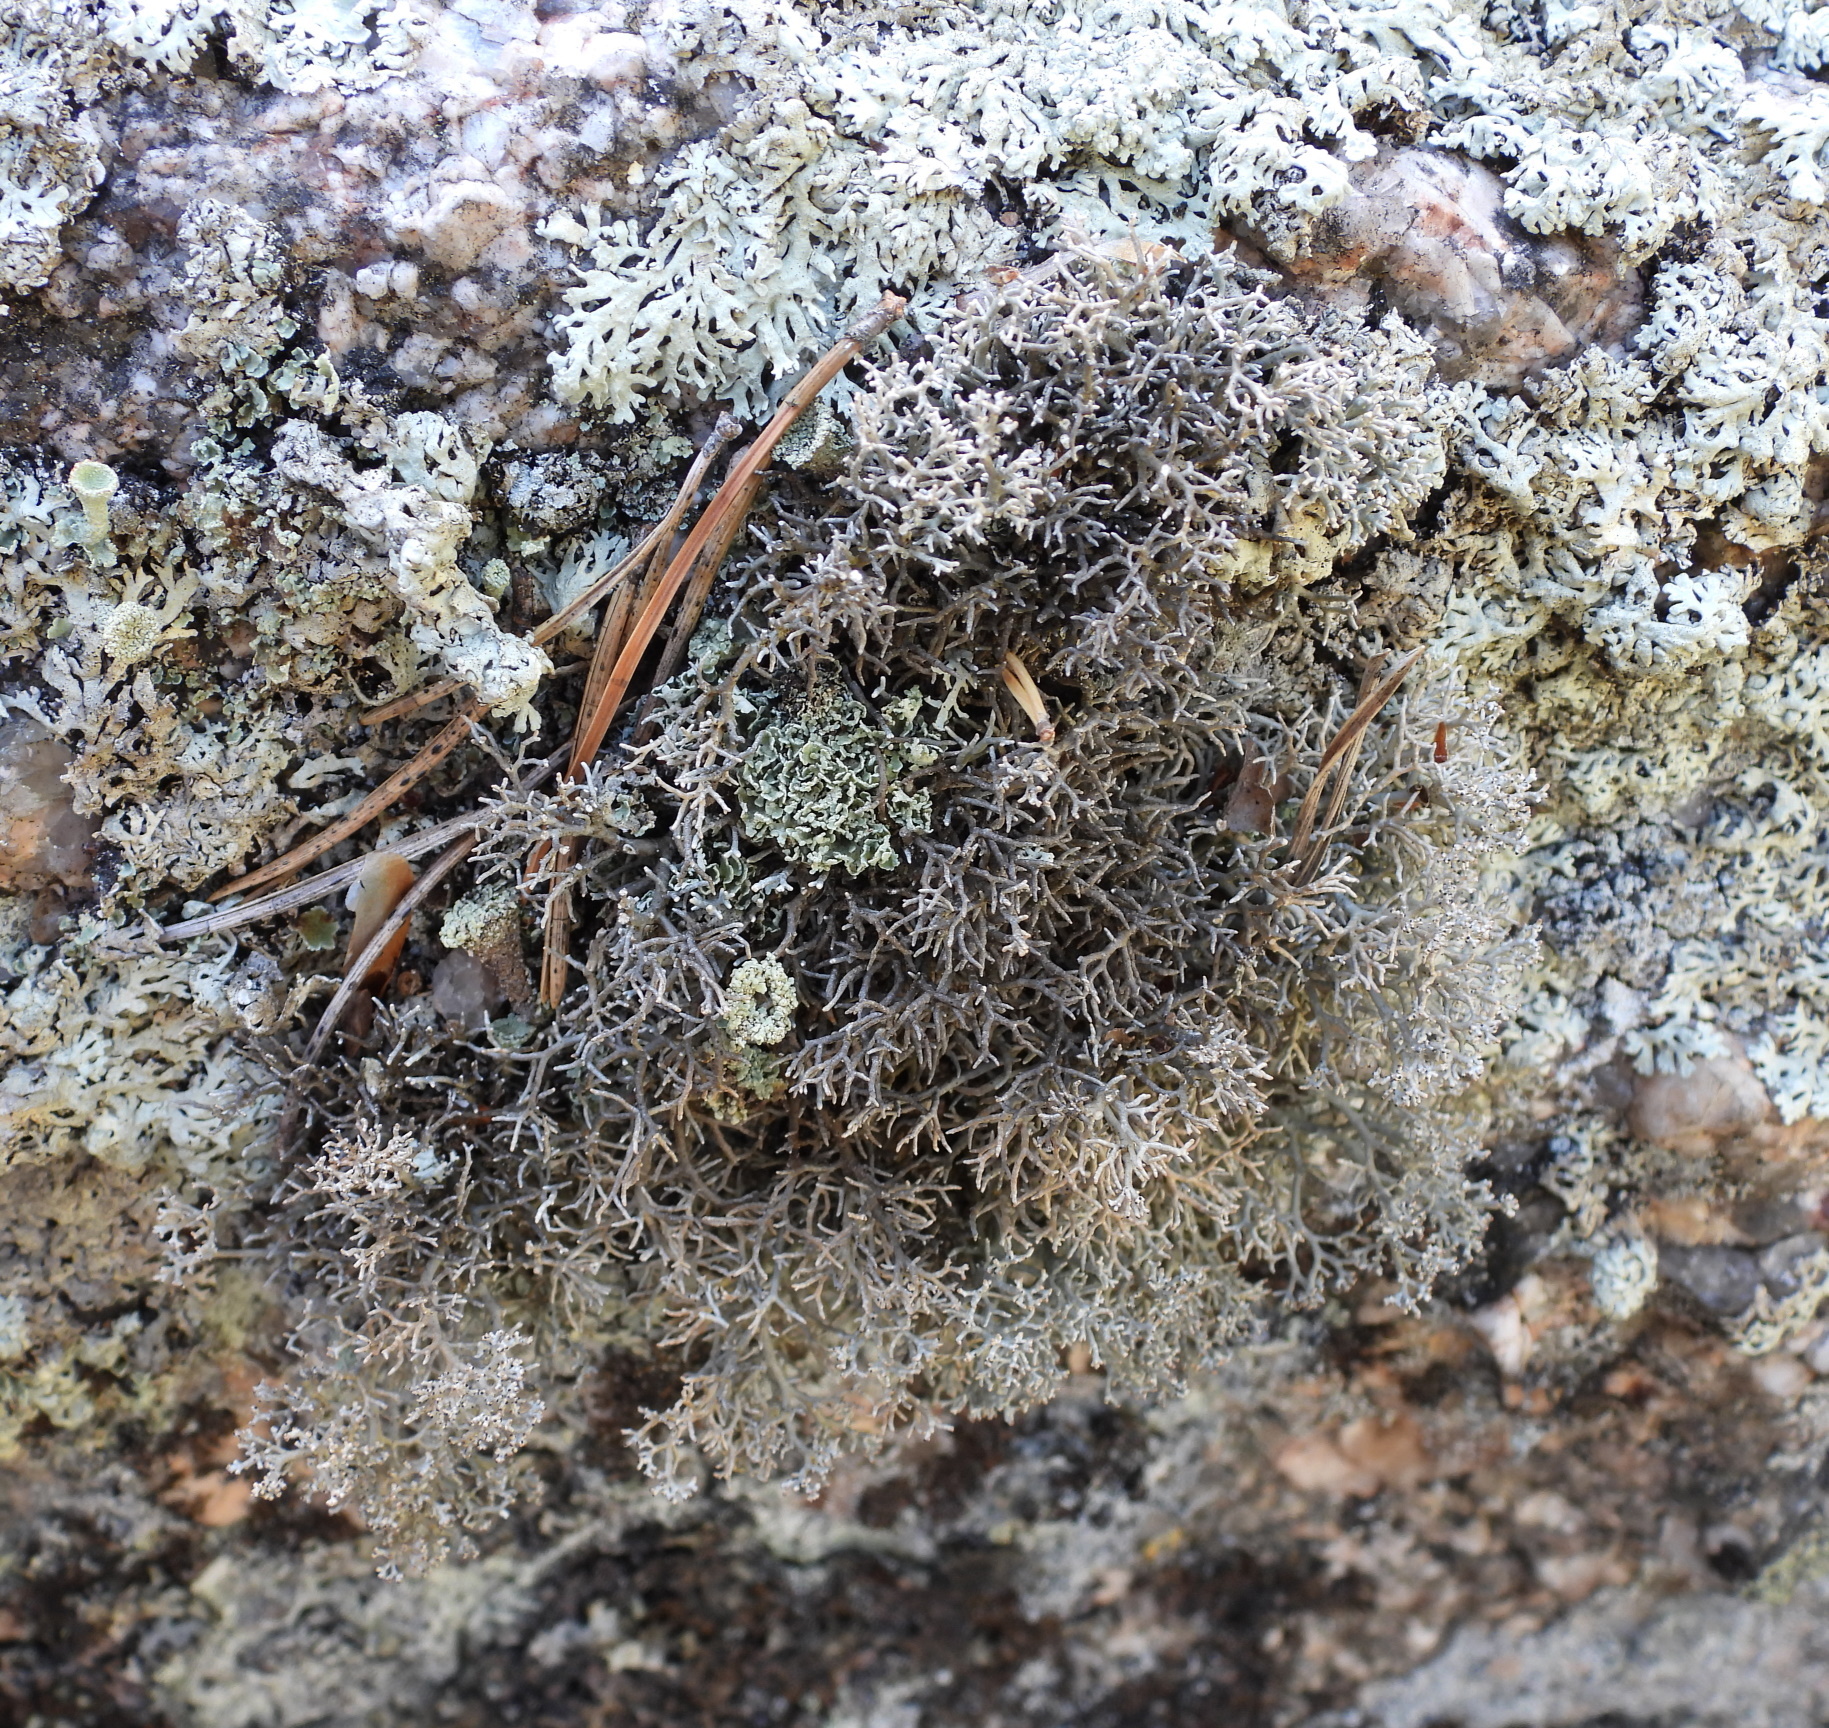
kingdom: Fungi
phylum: Ascomycota
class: Lecanoromycetes
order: Lecanorales
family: Sphaerophoraceae
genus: Sphaerophorus
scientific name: Sphaerophorus fragilis
